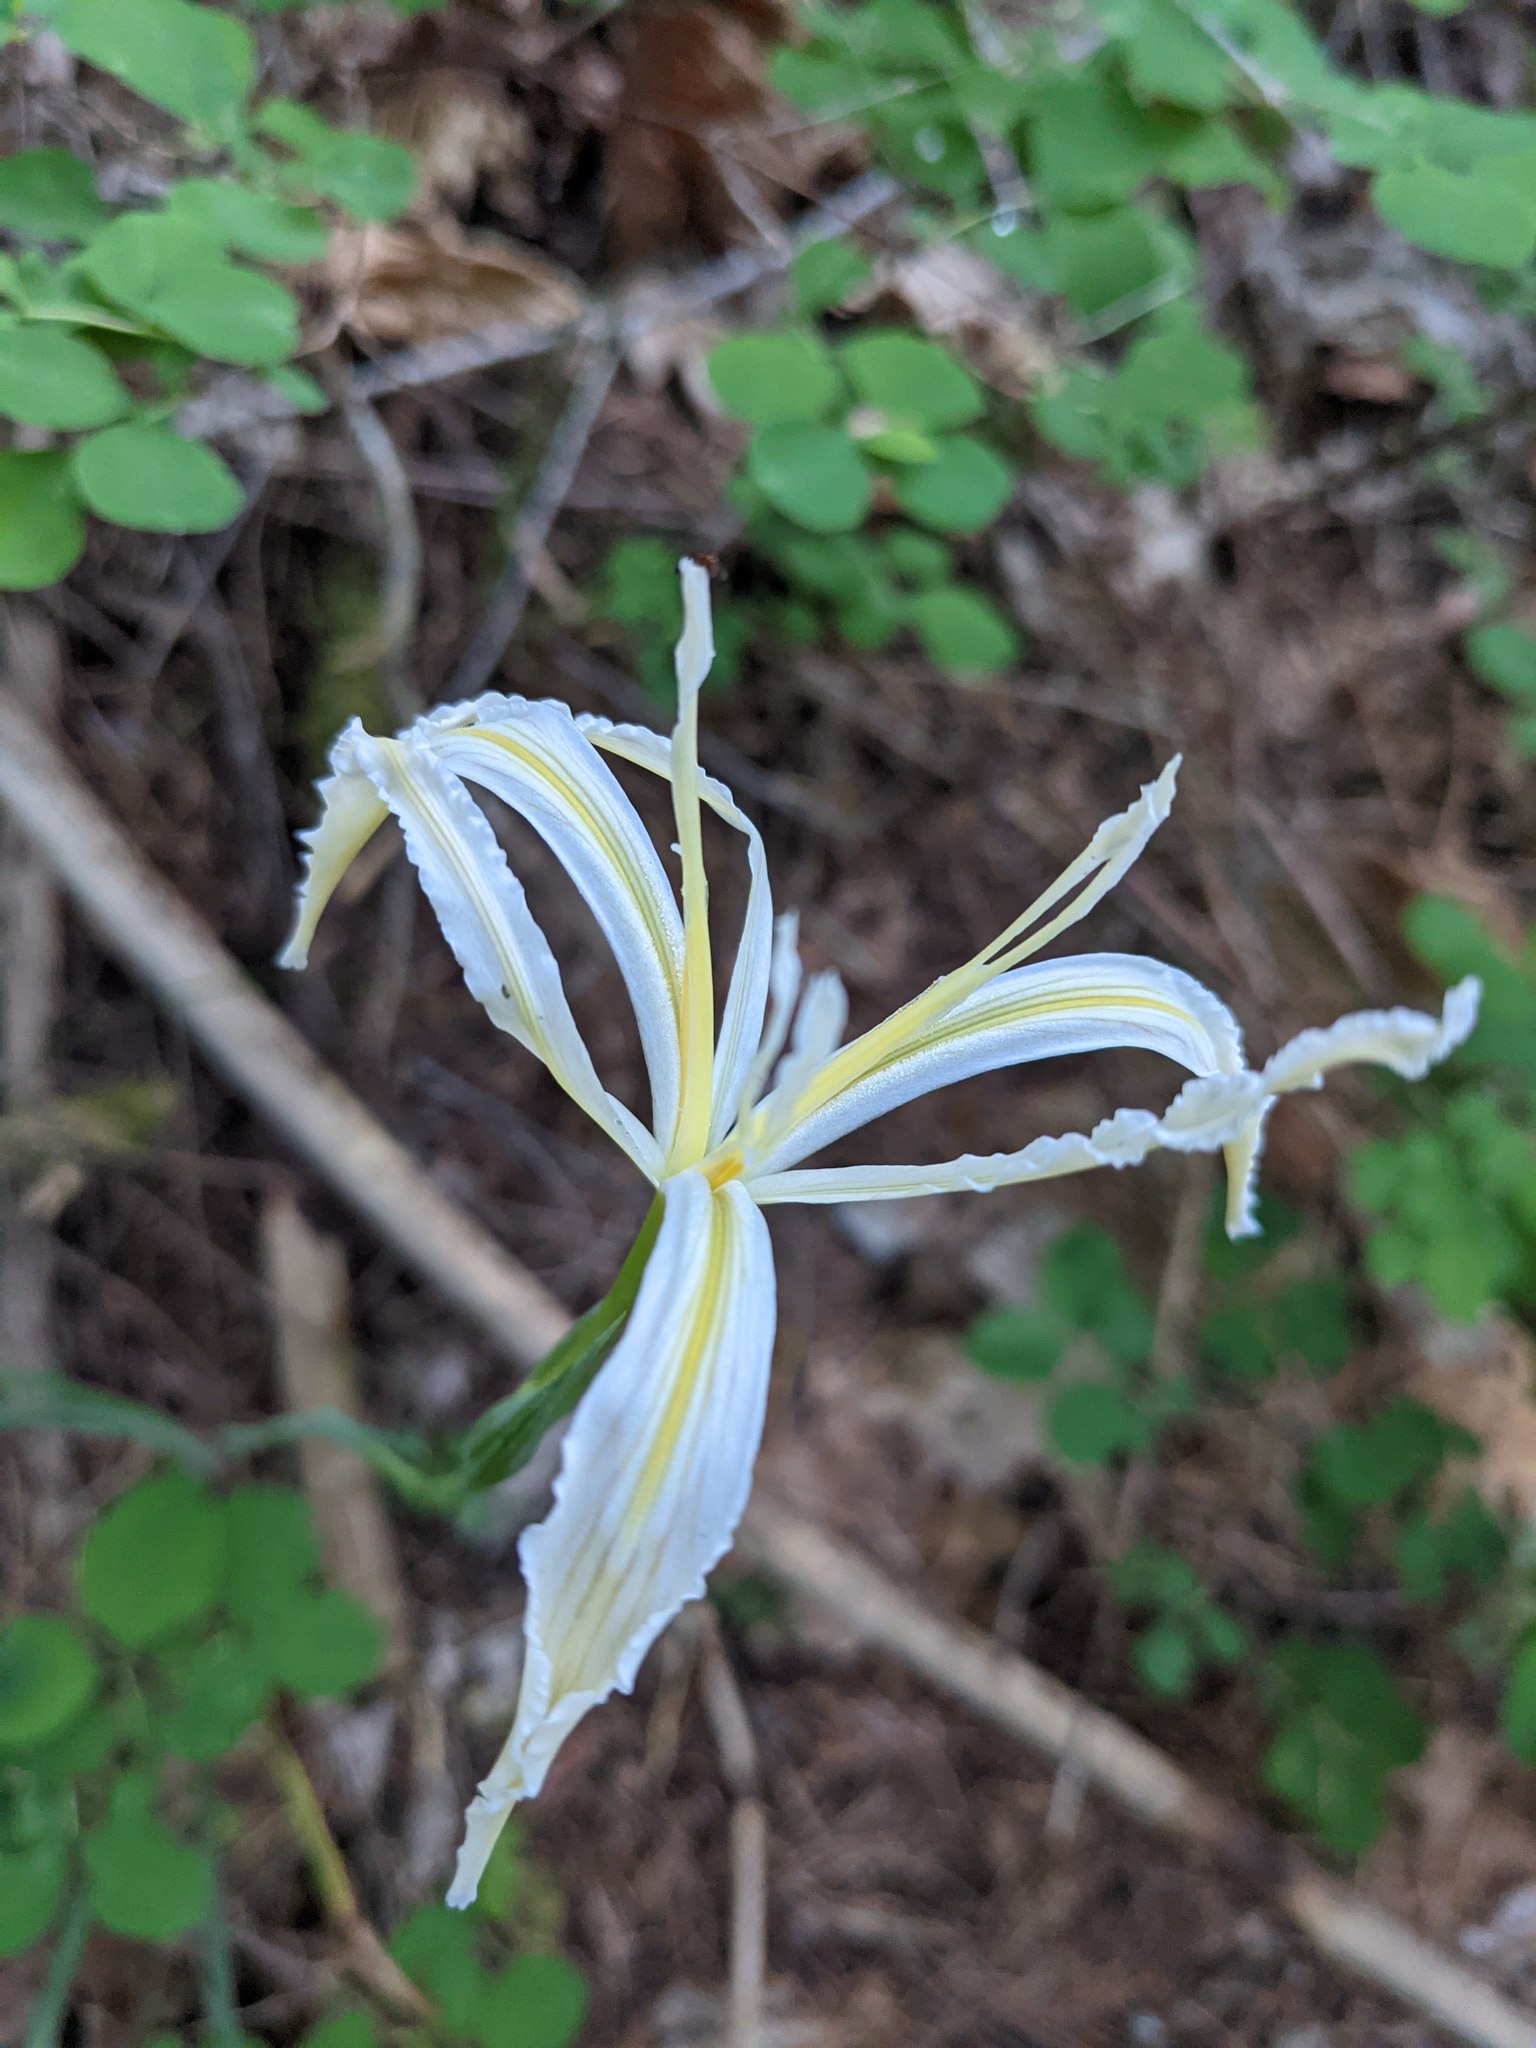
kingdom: Plantae
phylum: Tracheophyta
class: Liliopsida
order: Asparagales
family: Iridaceae
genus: Iris
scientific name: Iris tenuissima
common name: Long-tube iris
